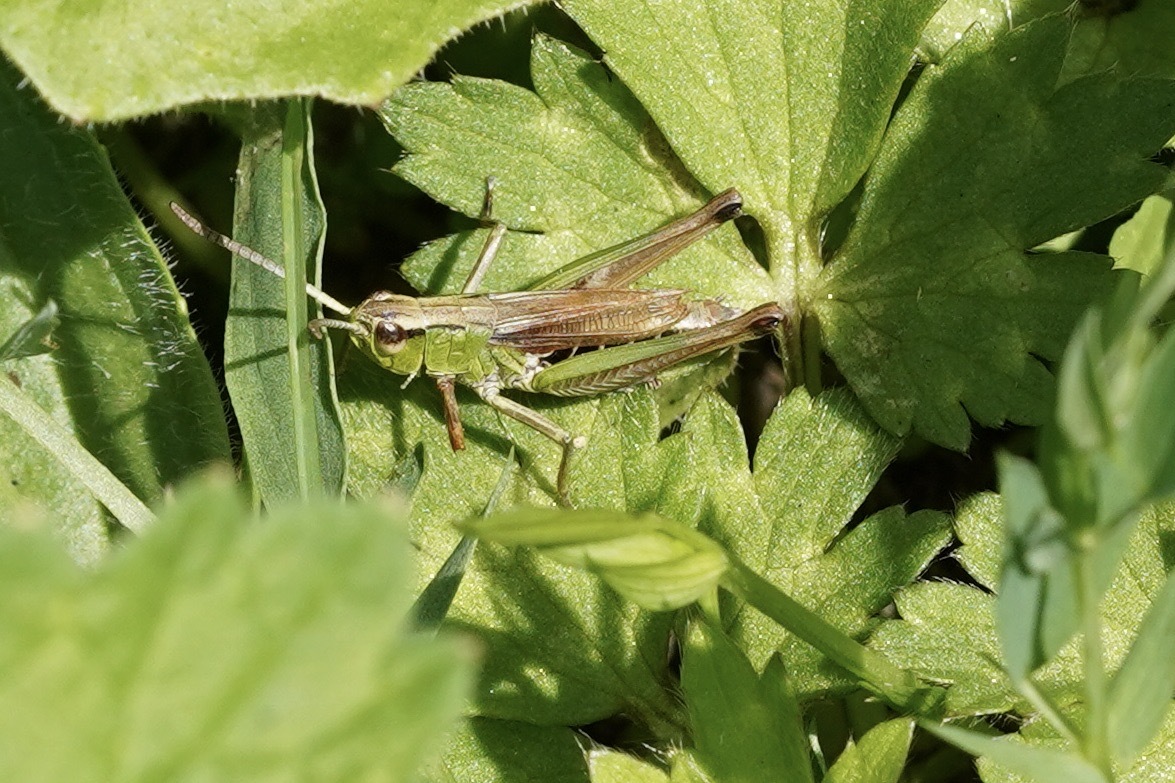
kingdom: Animalia
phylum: Arthropoda
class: Insecta
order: Orthoptera
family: Acrididae
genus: Pseudochorthippus
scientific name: Pseudochorthippus parallelus
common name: Meadow grasshopper
